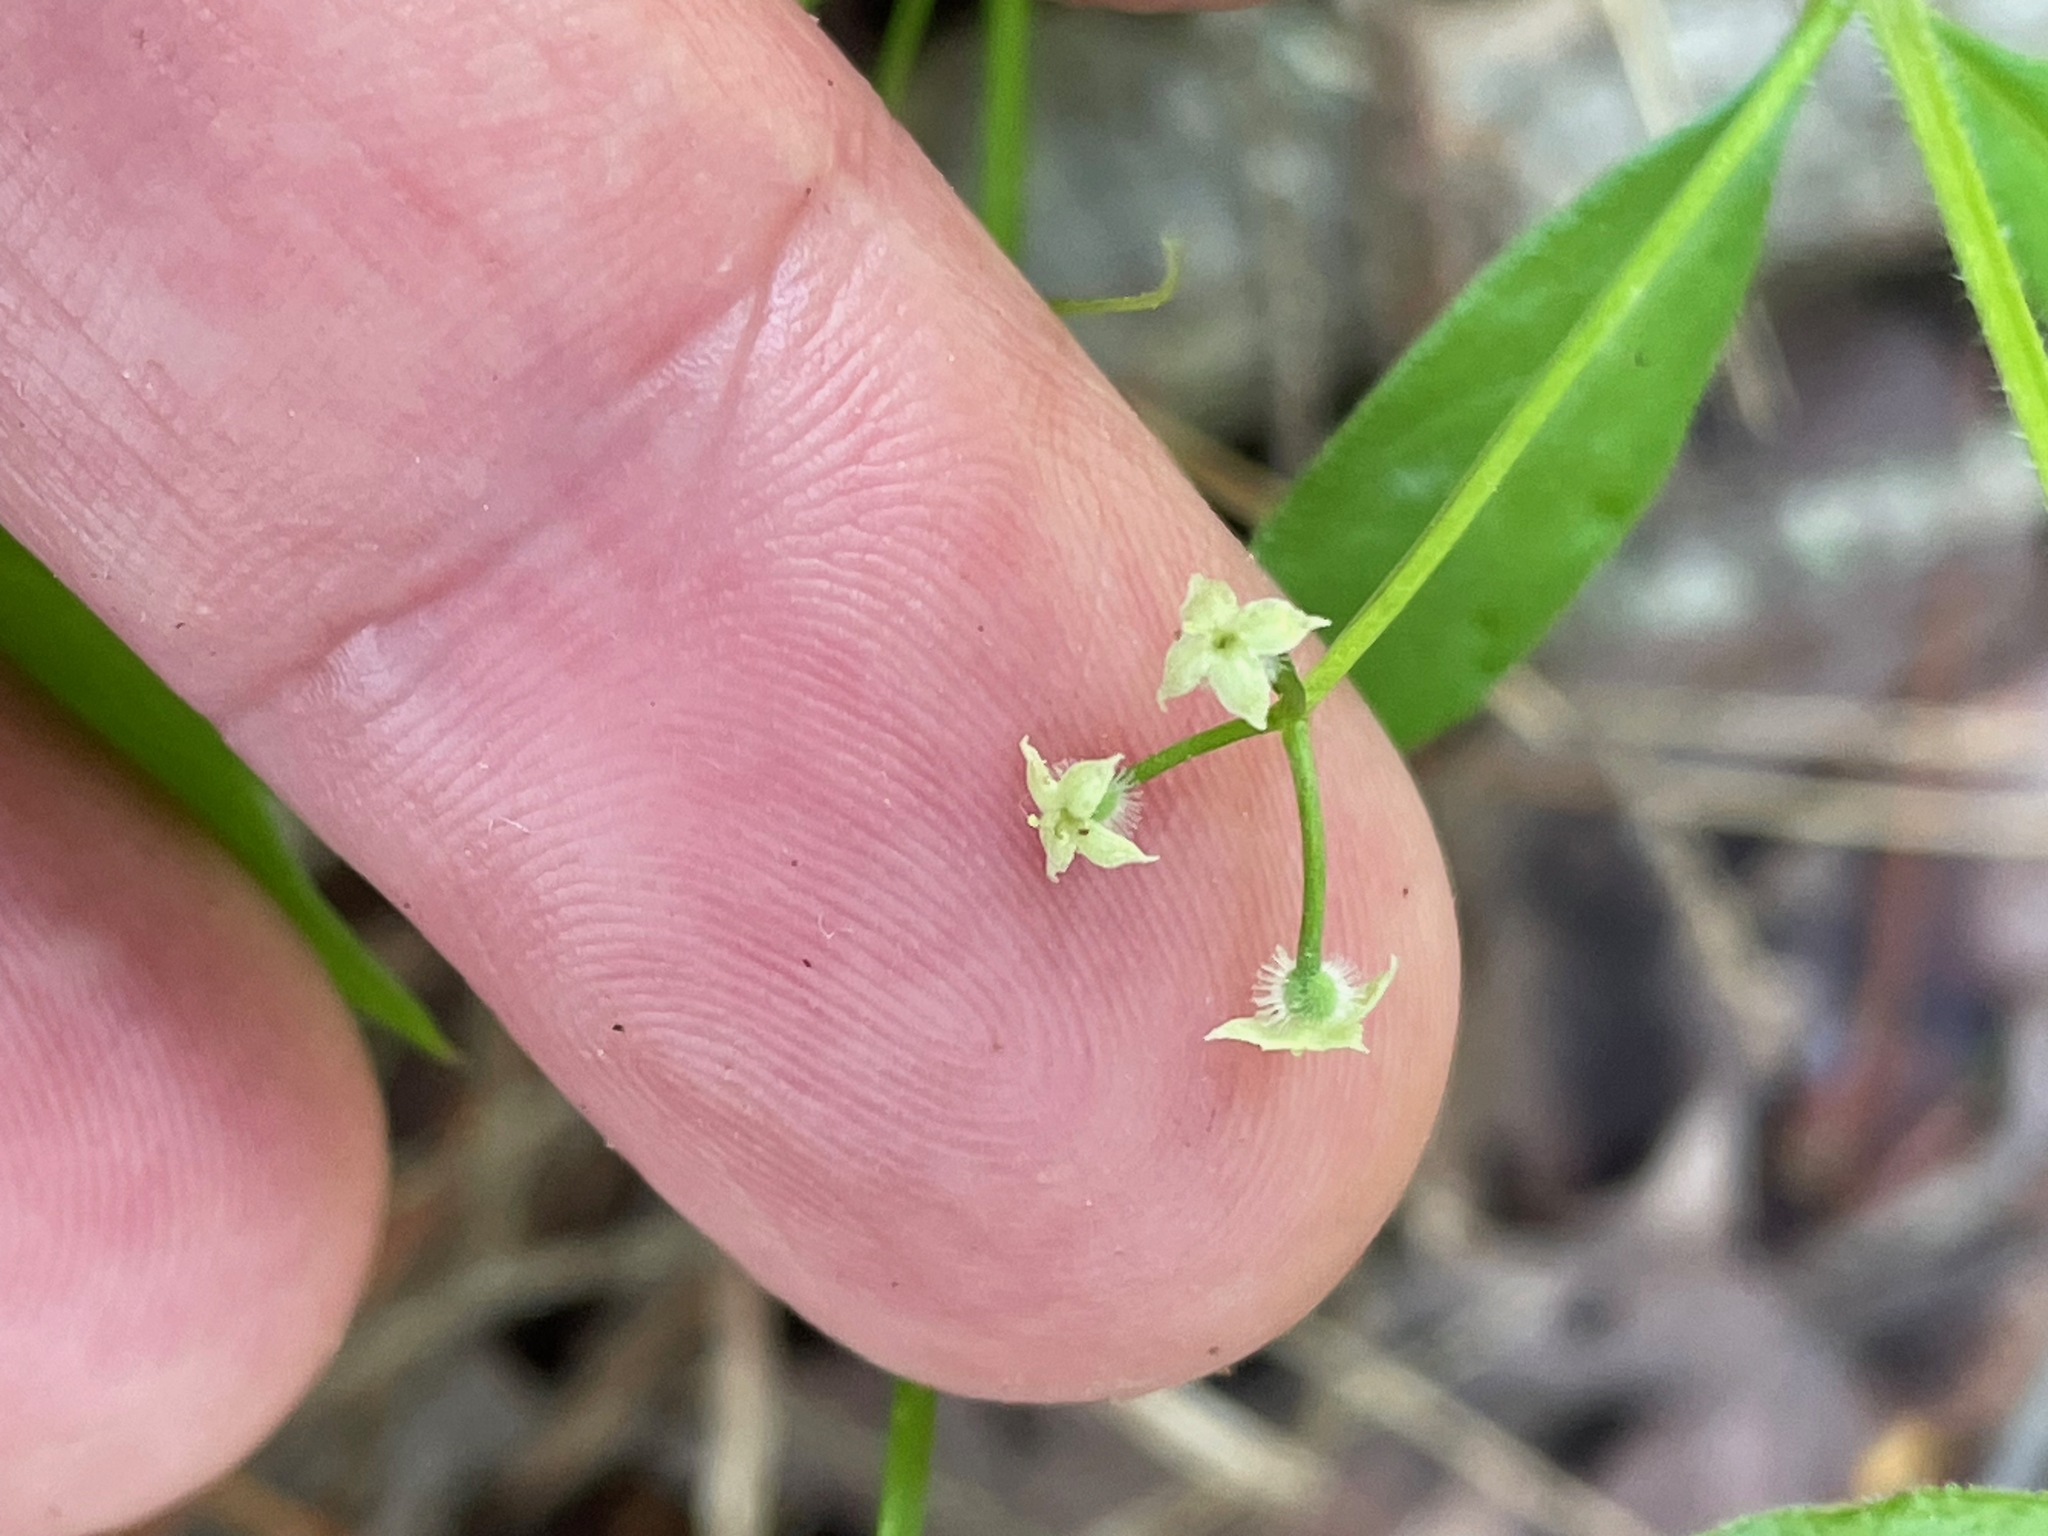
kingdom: Plantae
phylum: Tracheophyta
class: Magnoliopsida
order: Gentianales
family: Rubiaceae
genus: Galium
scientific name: Galium triflorum
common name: Fragrant bedstraw
